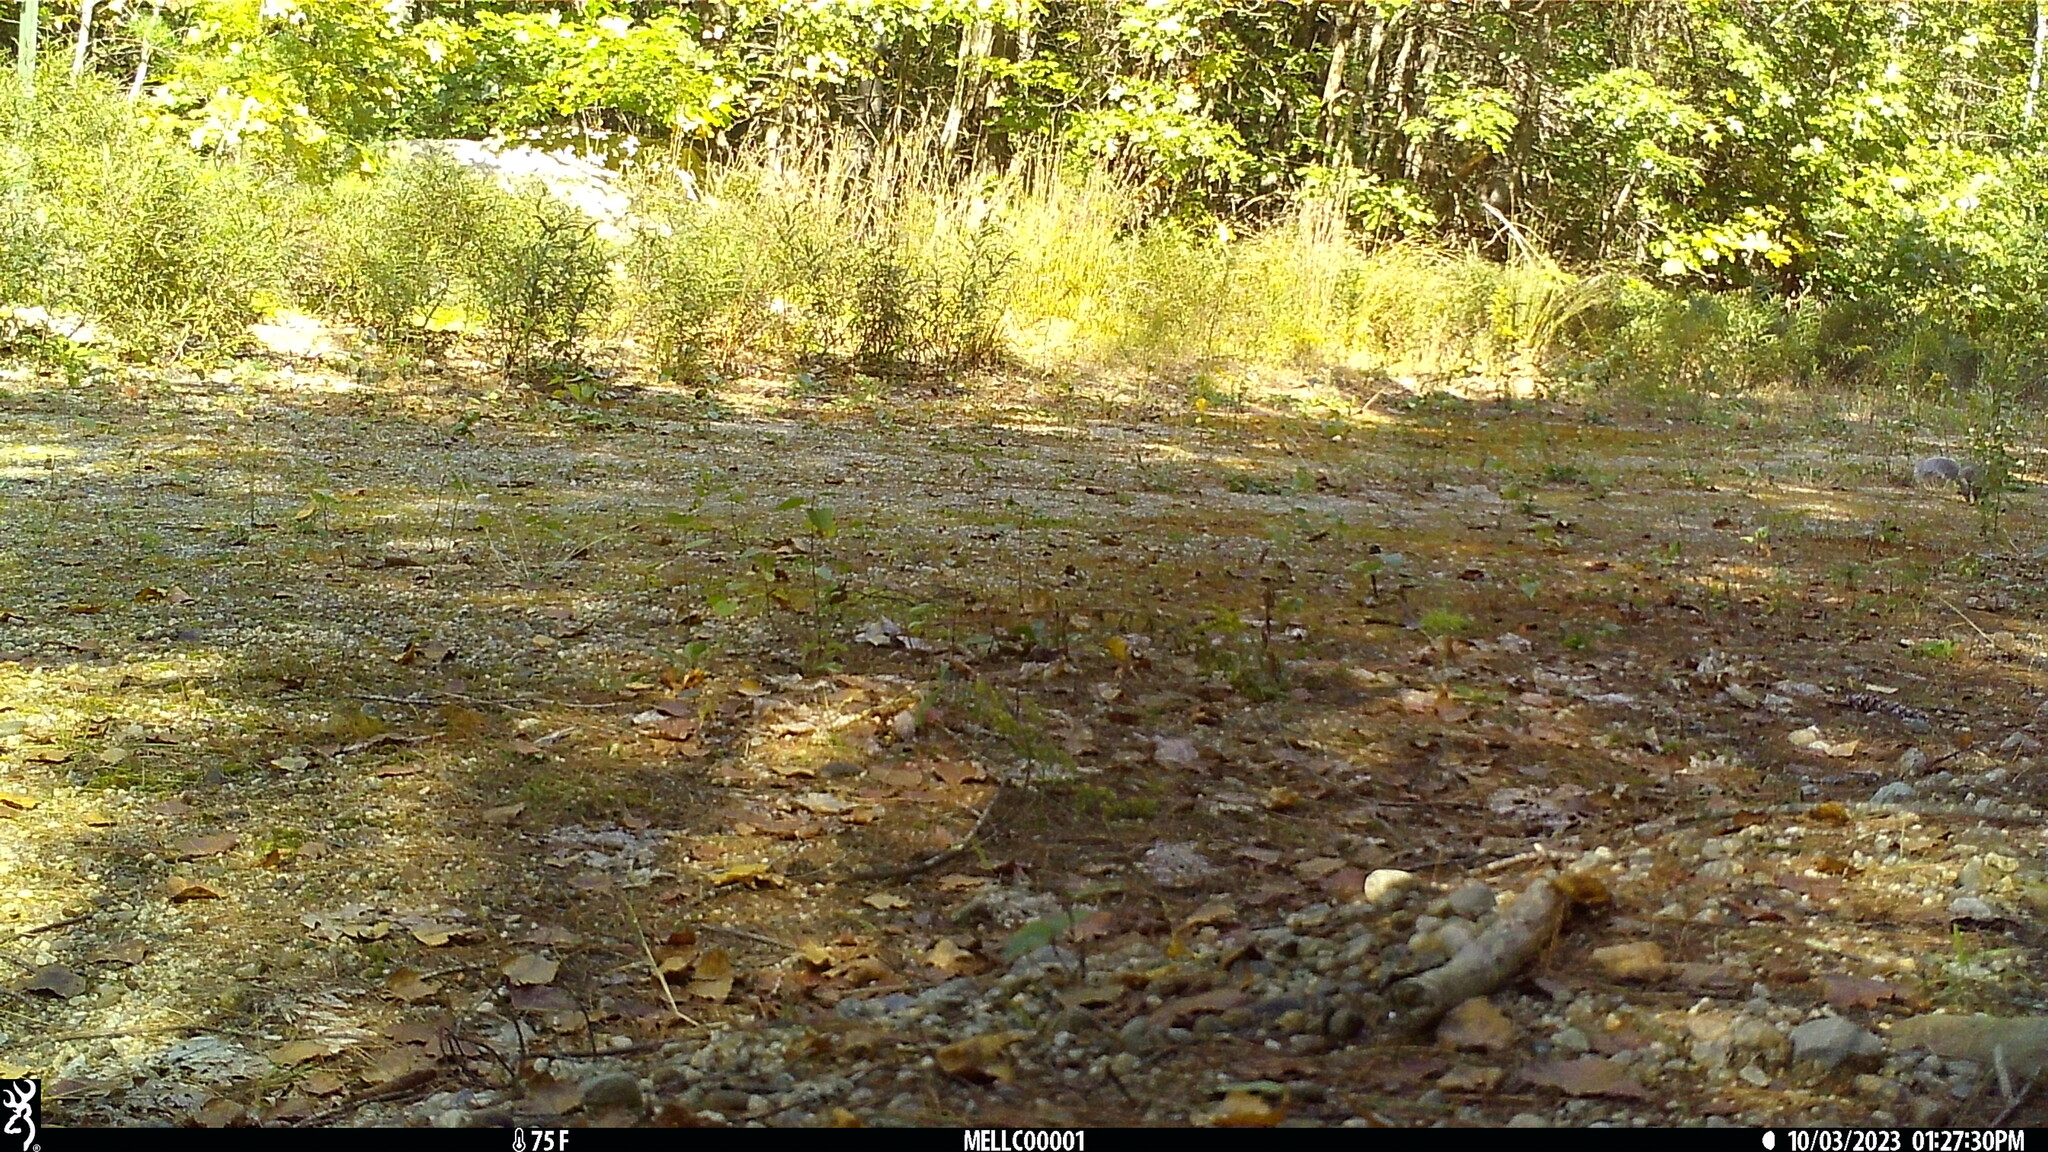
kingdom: Animalia
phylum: Chordata
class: Mammalia
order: Rodentia
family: Sciuridae
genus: Sciurus
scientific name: Sciurus carolinensis
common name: Eastern gray squirrel
